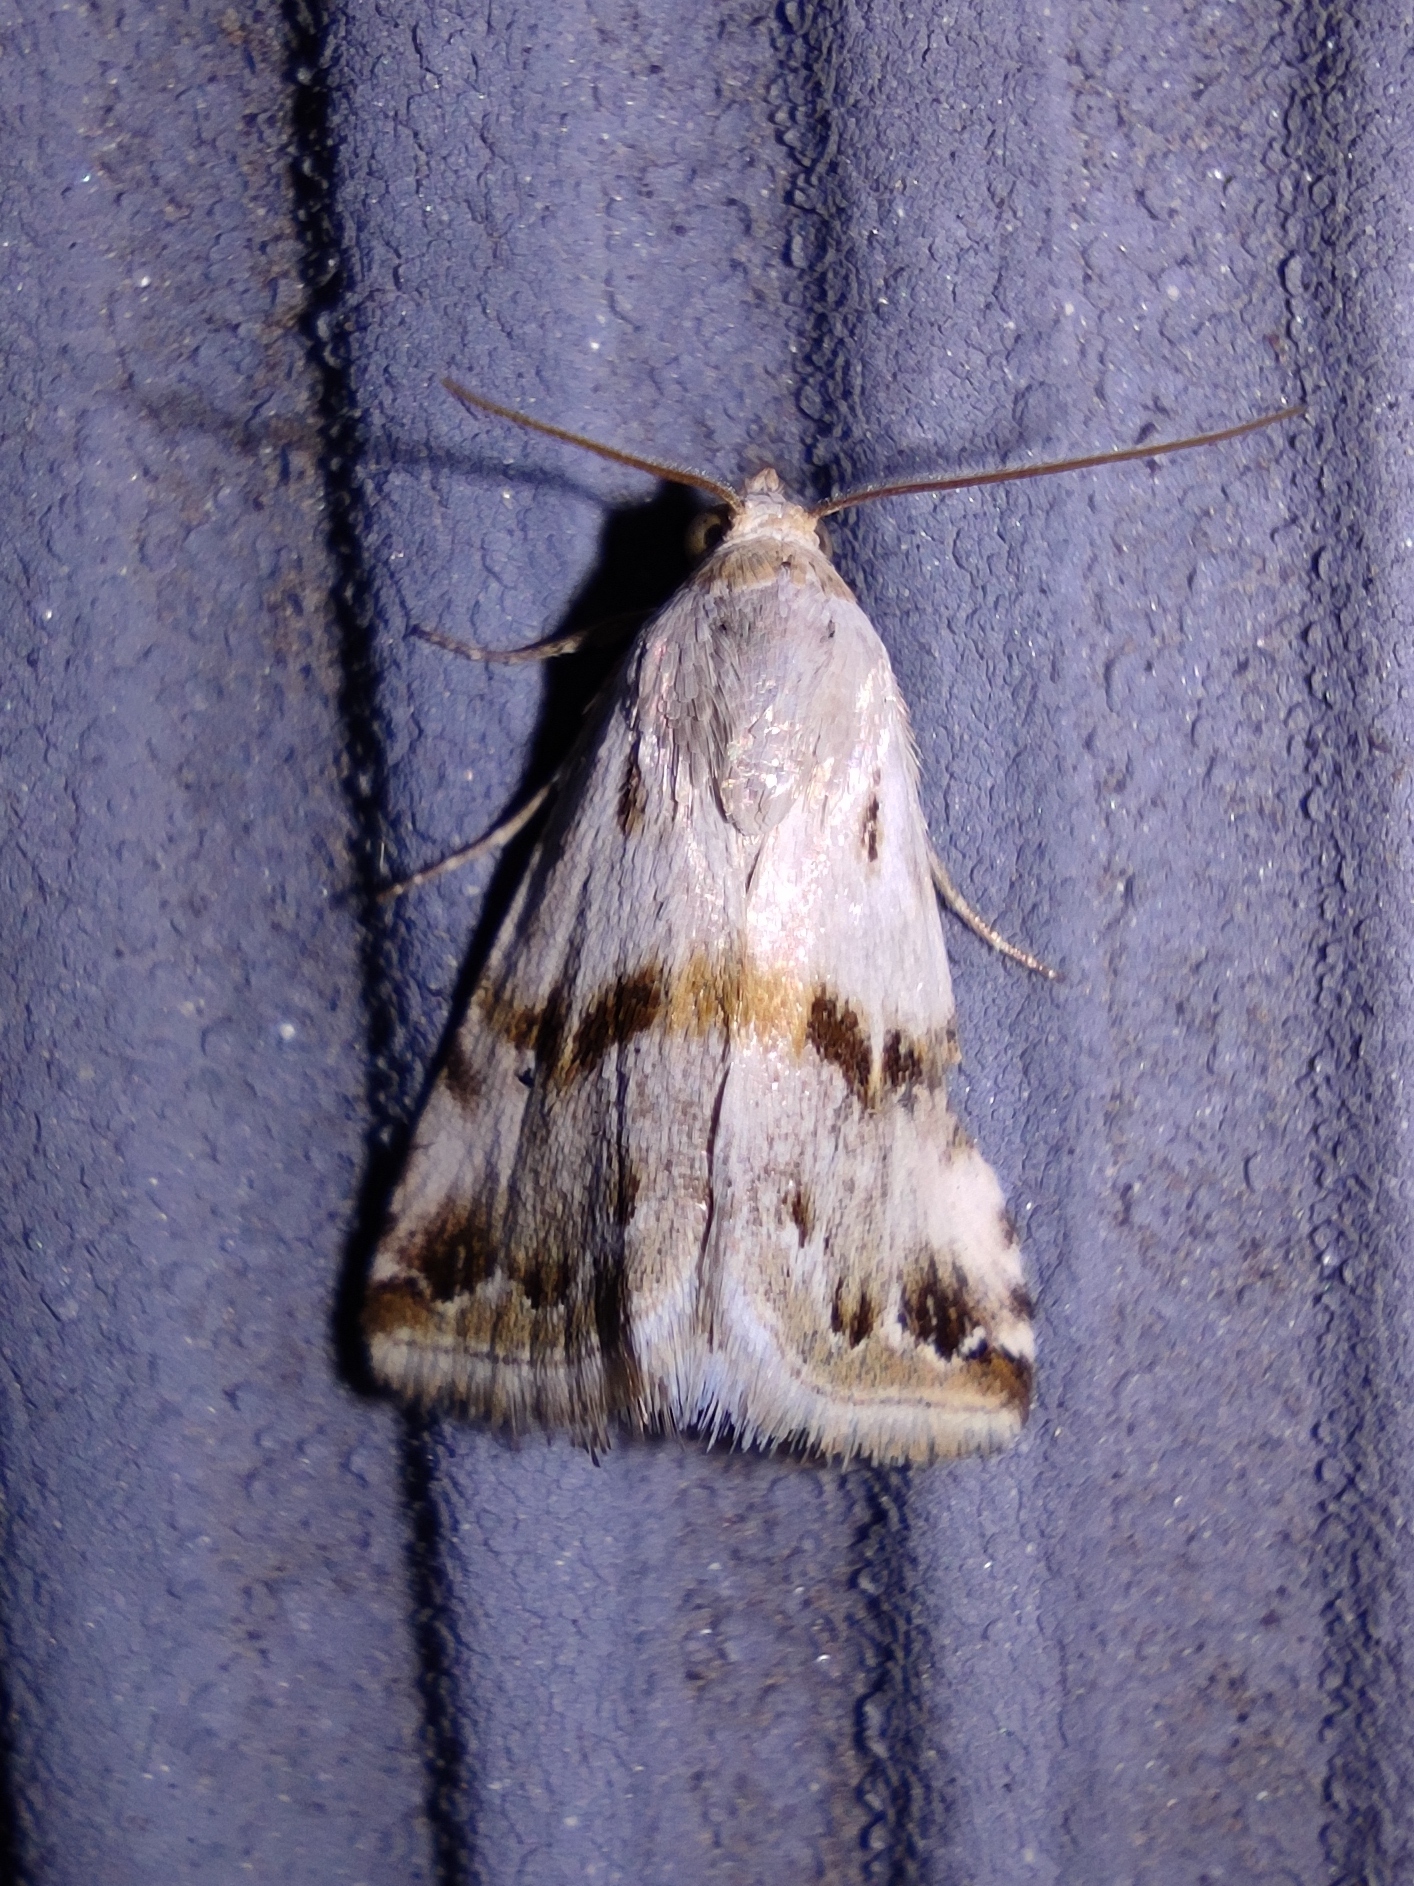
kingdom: Animalia
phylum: Arthropoda
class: Insecta
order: Lepidoptera
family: Noctuidae
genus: Eublemma
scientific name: Eublemma porphyrina
